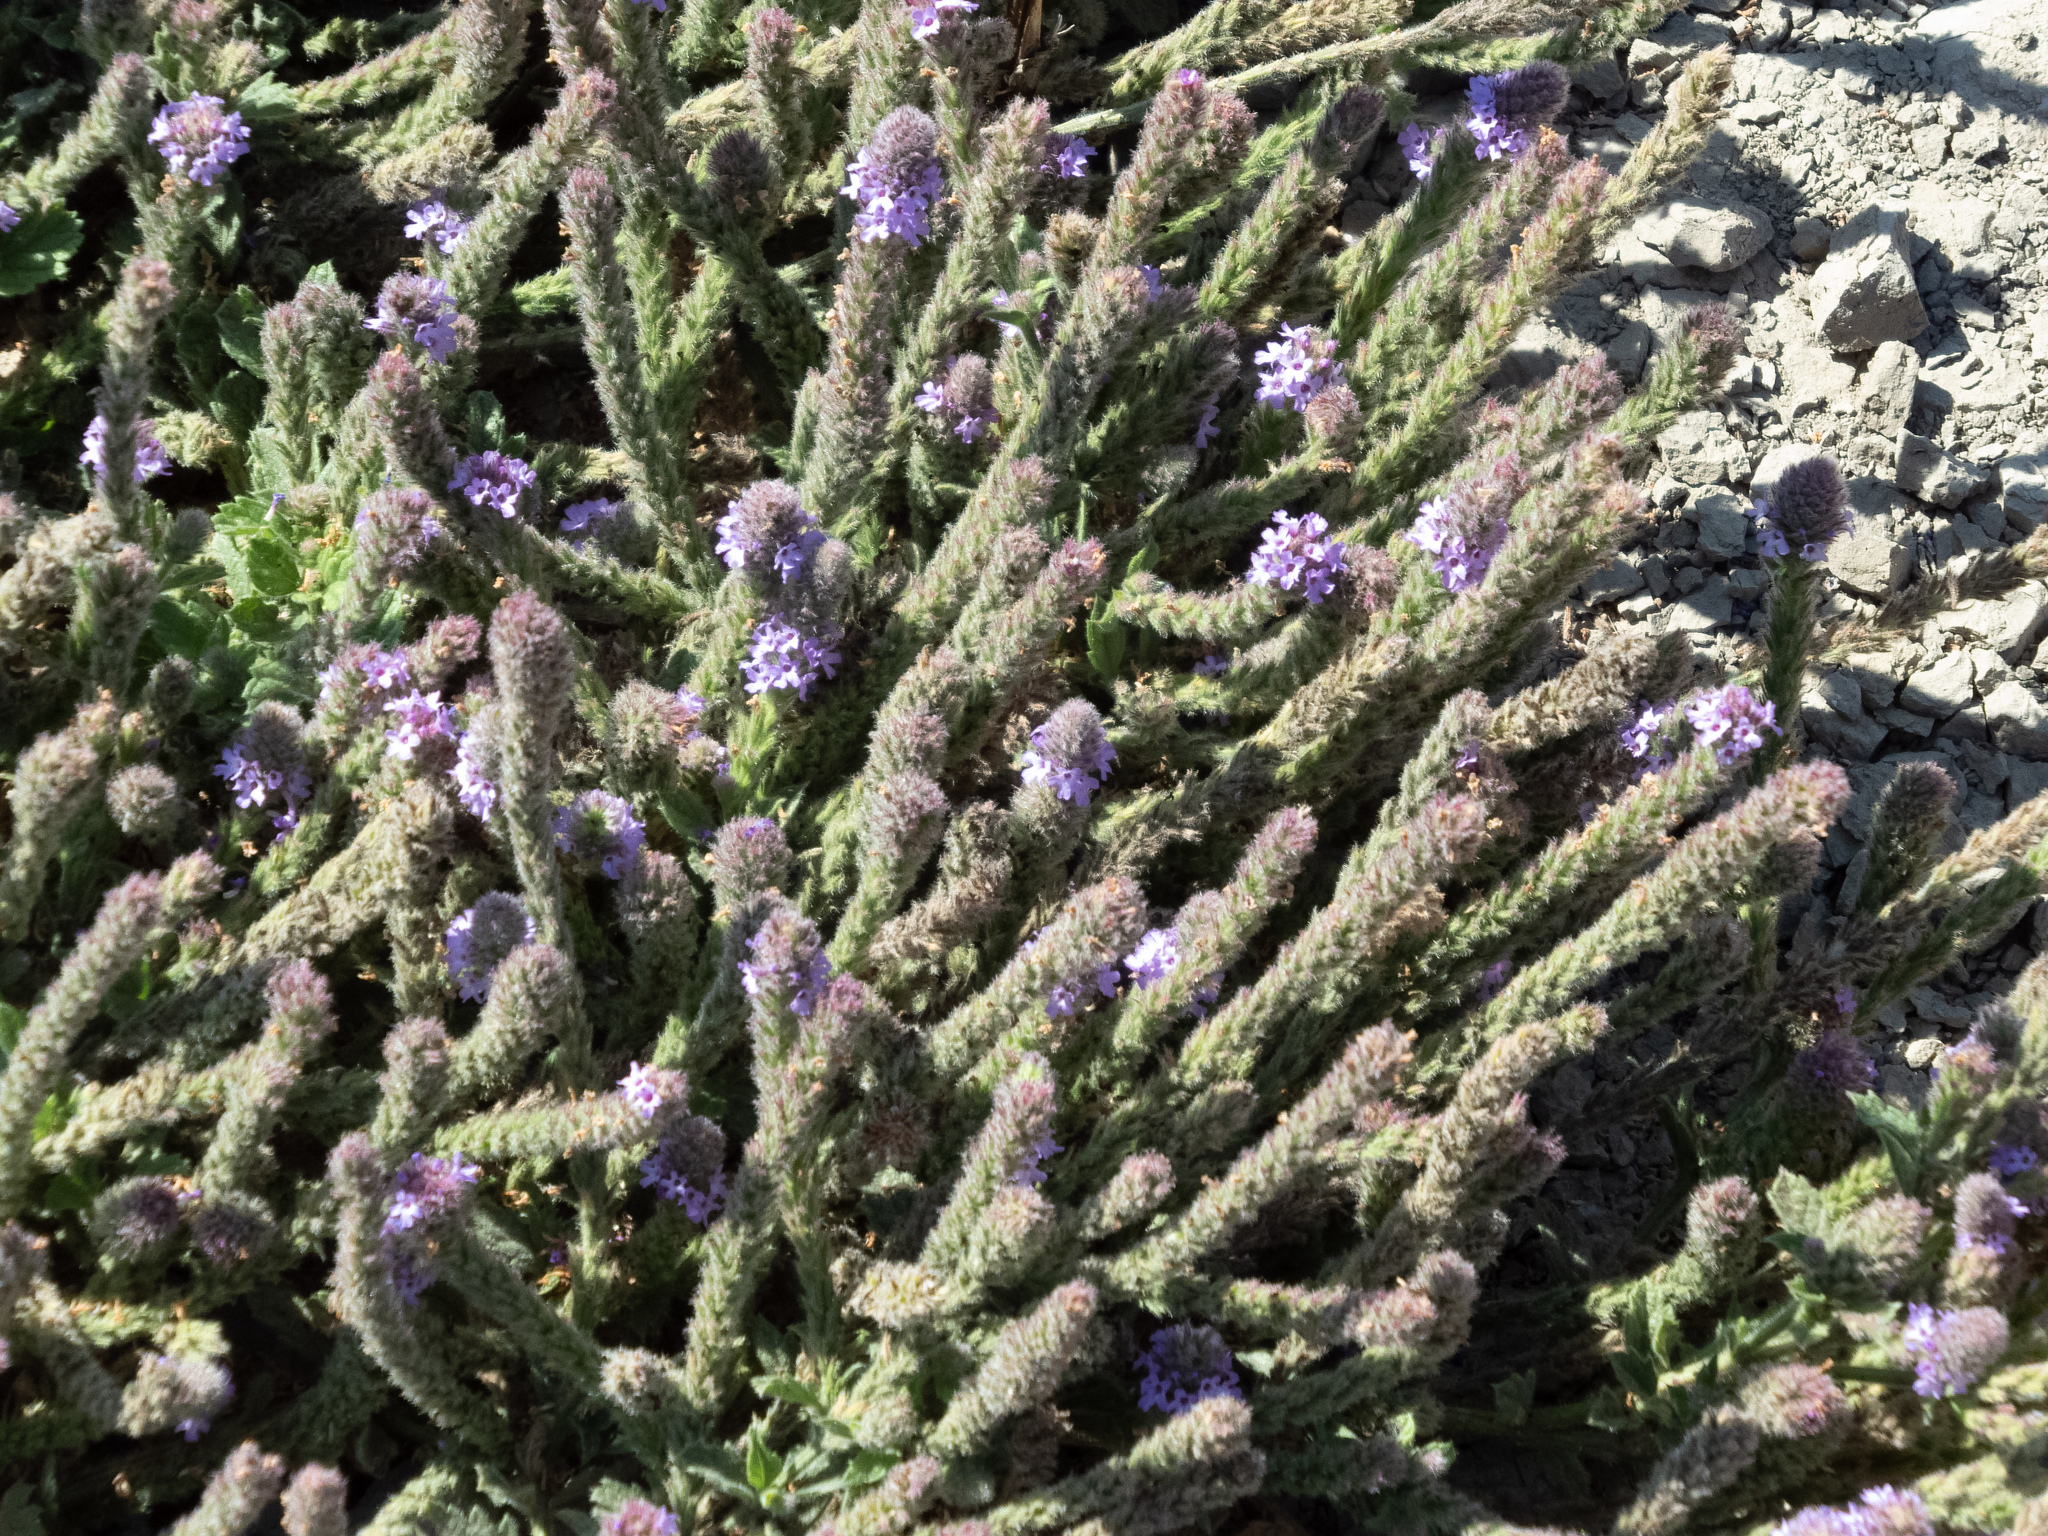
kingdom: Plantae
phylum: Tracheophyta
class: Magnoliopsida
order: Lamiales
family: Verbenaceae
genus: Verbena
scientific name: Verbena lasiostachys
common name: Vervain
